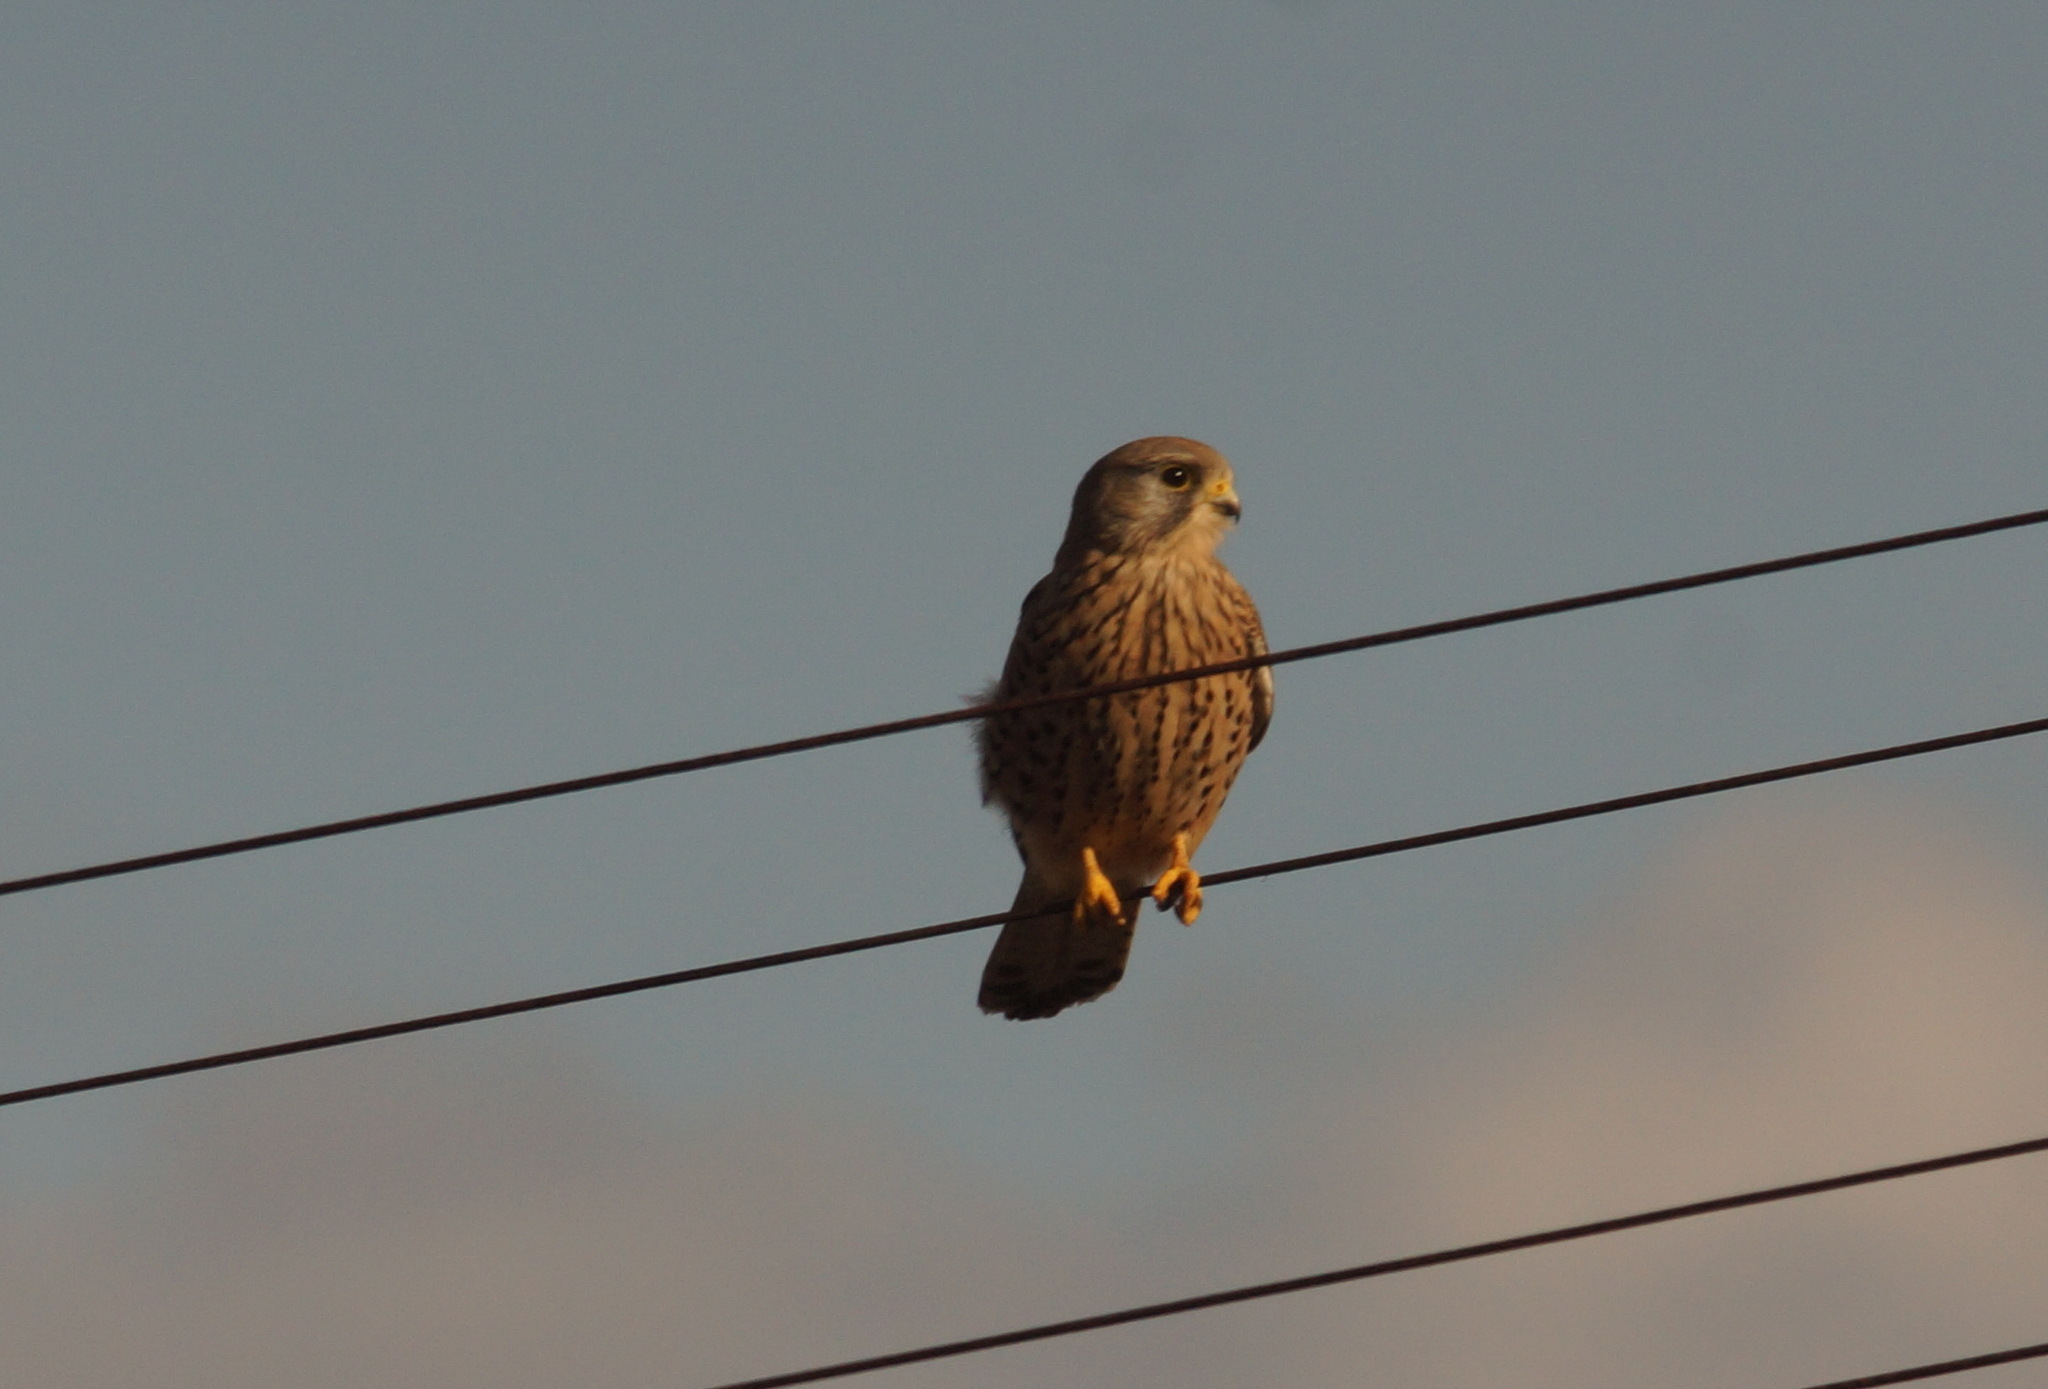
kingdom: Animalia
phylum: Chordata
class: Aves
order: Falconiformes
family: Falconidae
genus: Falco
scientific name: Falco tinnunculus
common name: Common kestrel
